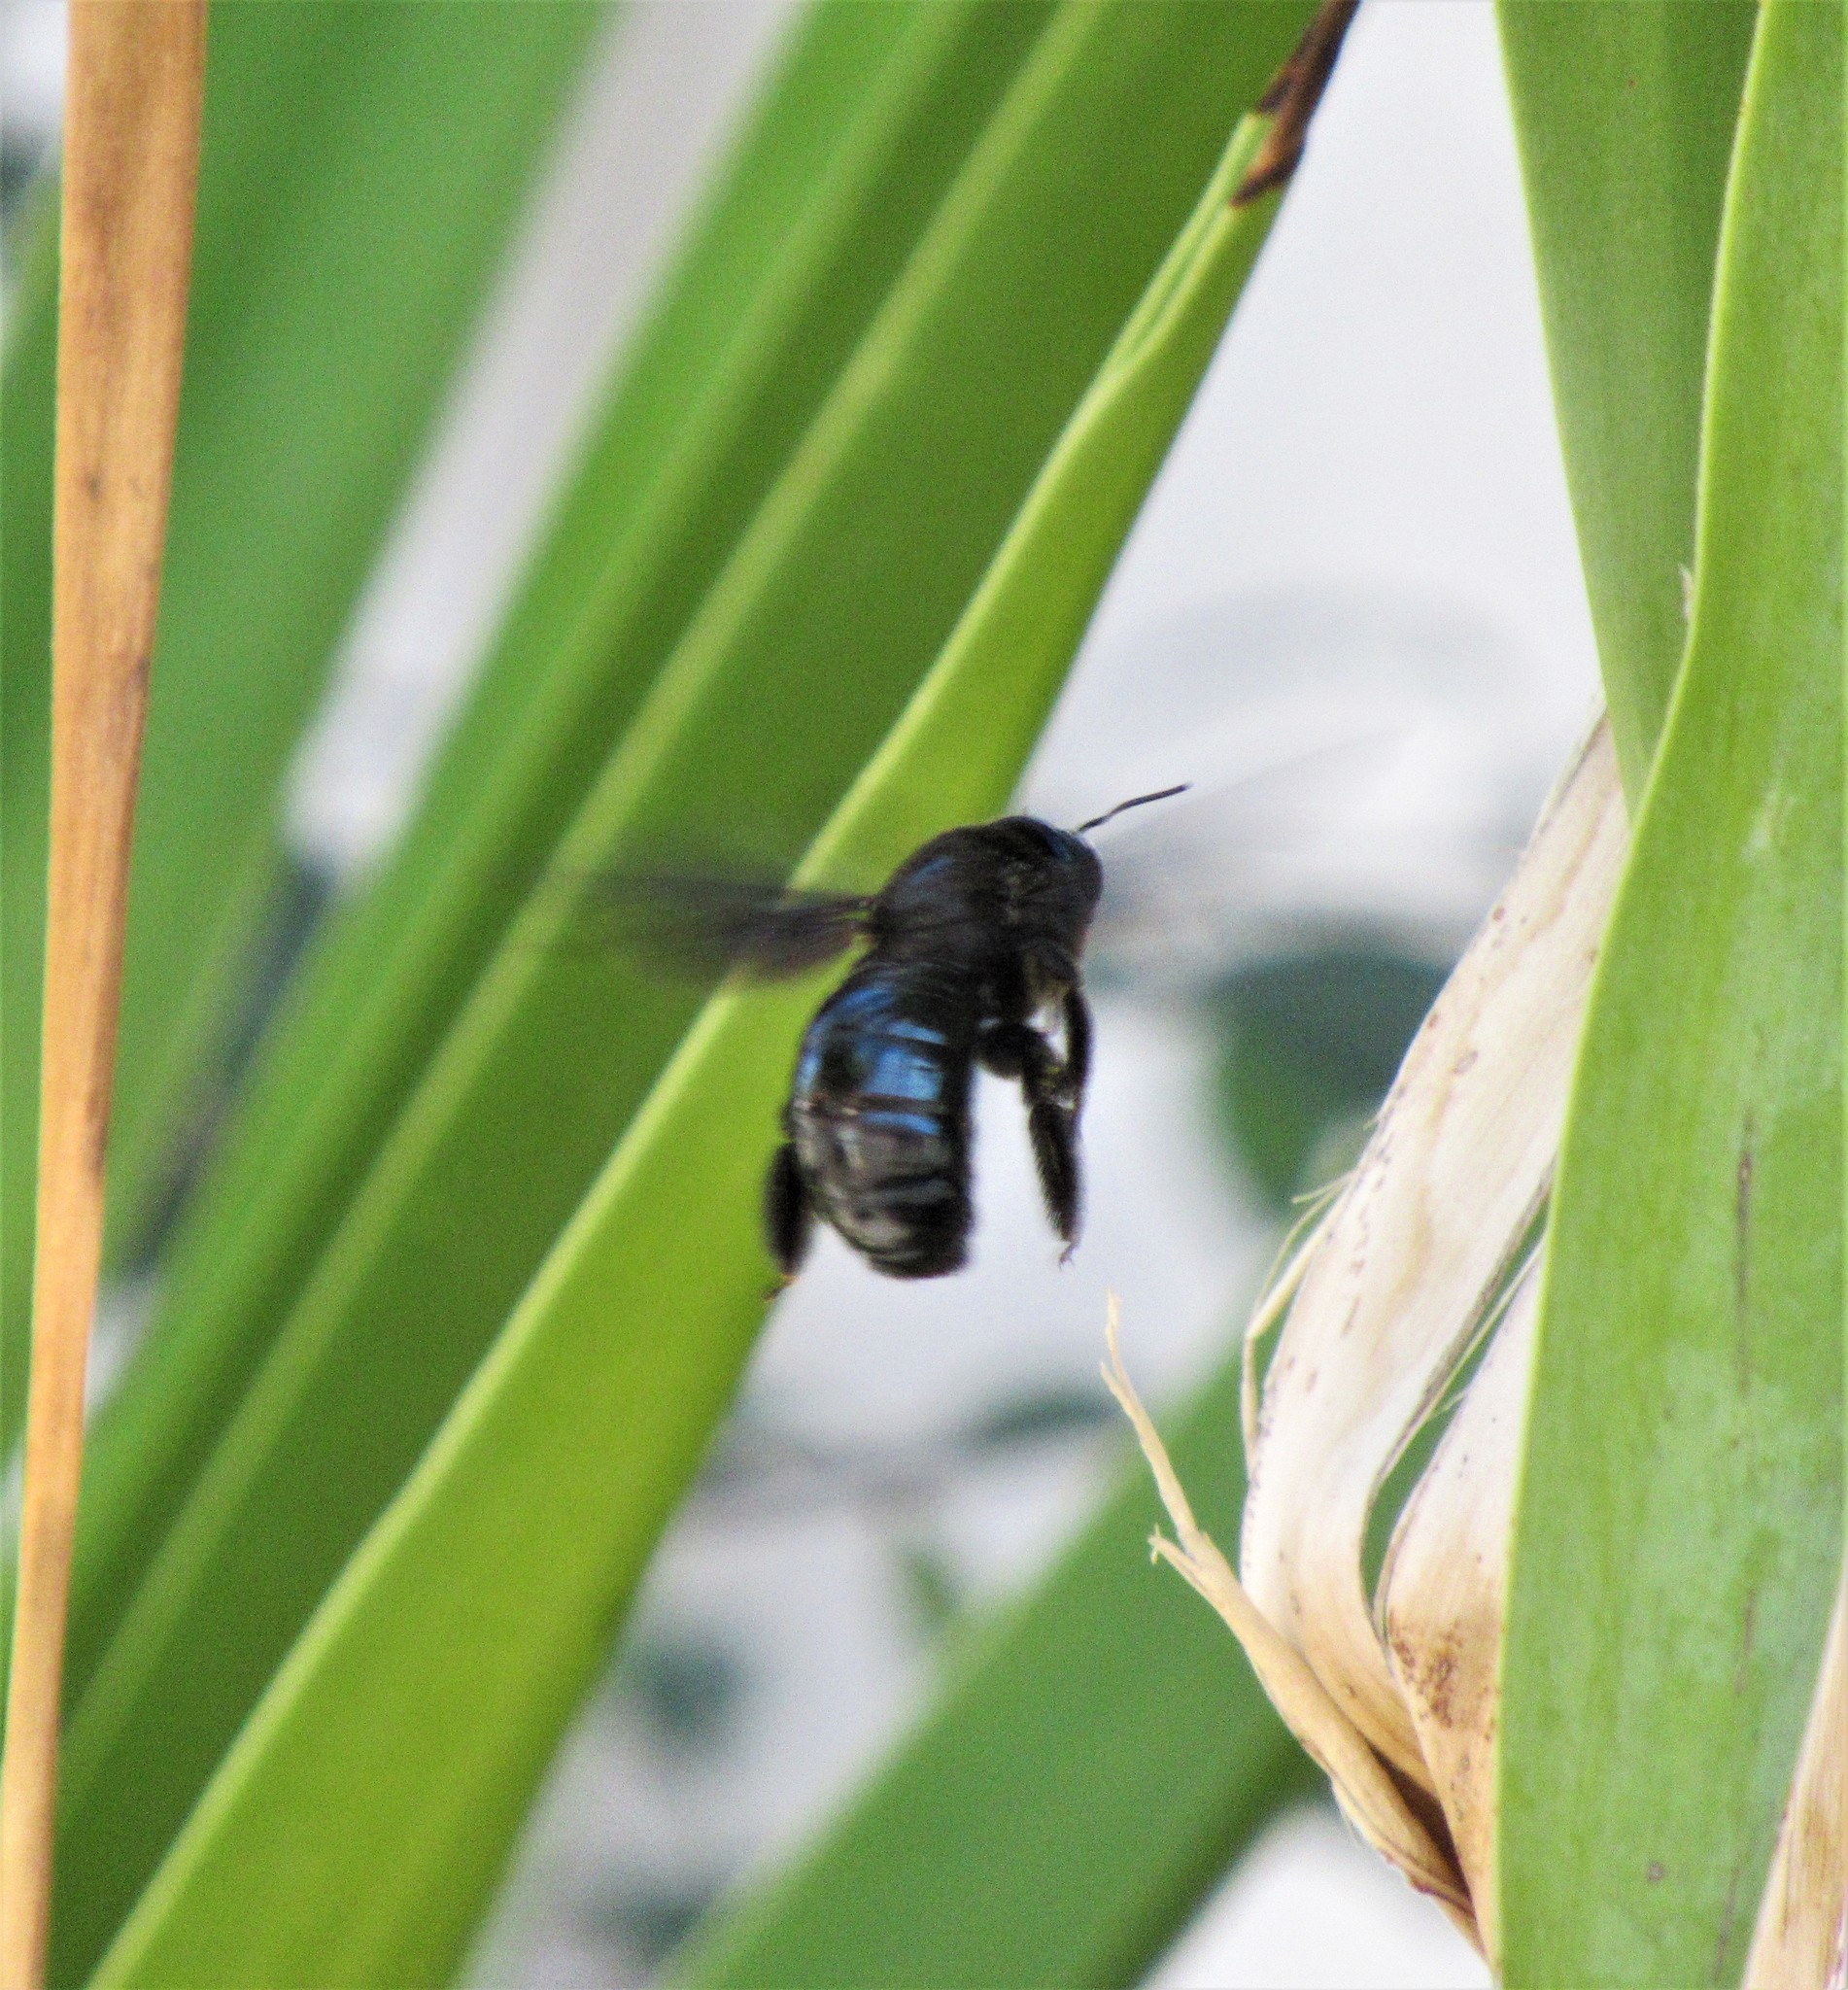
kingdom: Animalia
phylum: Arthropoda
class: Insecta
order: Hymenoptera
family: Apidae
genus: Xylocopa
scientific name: Xylocopa californica
